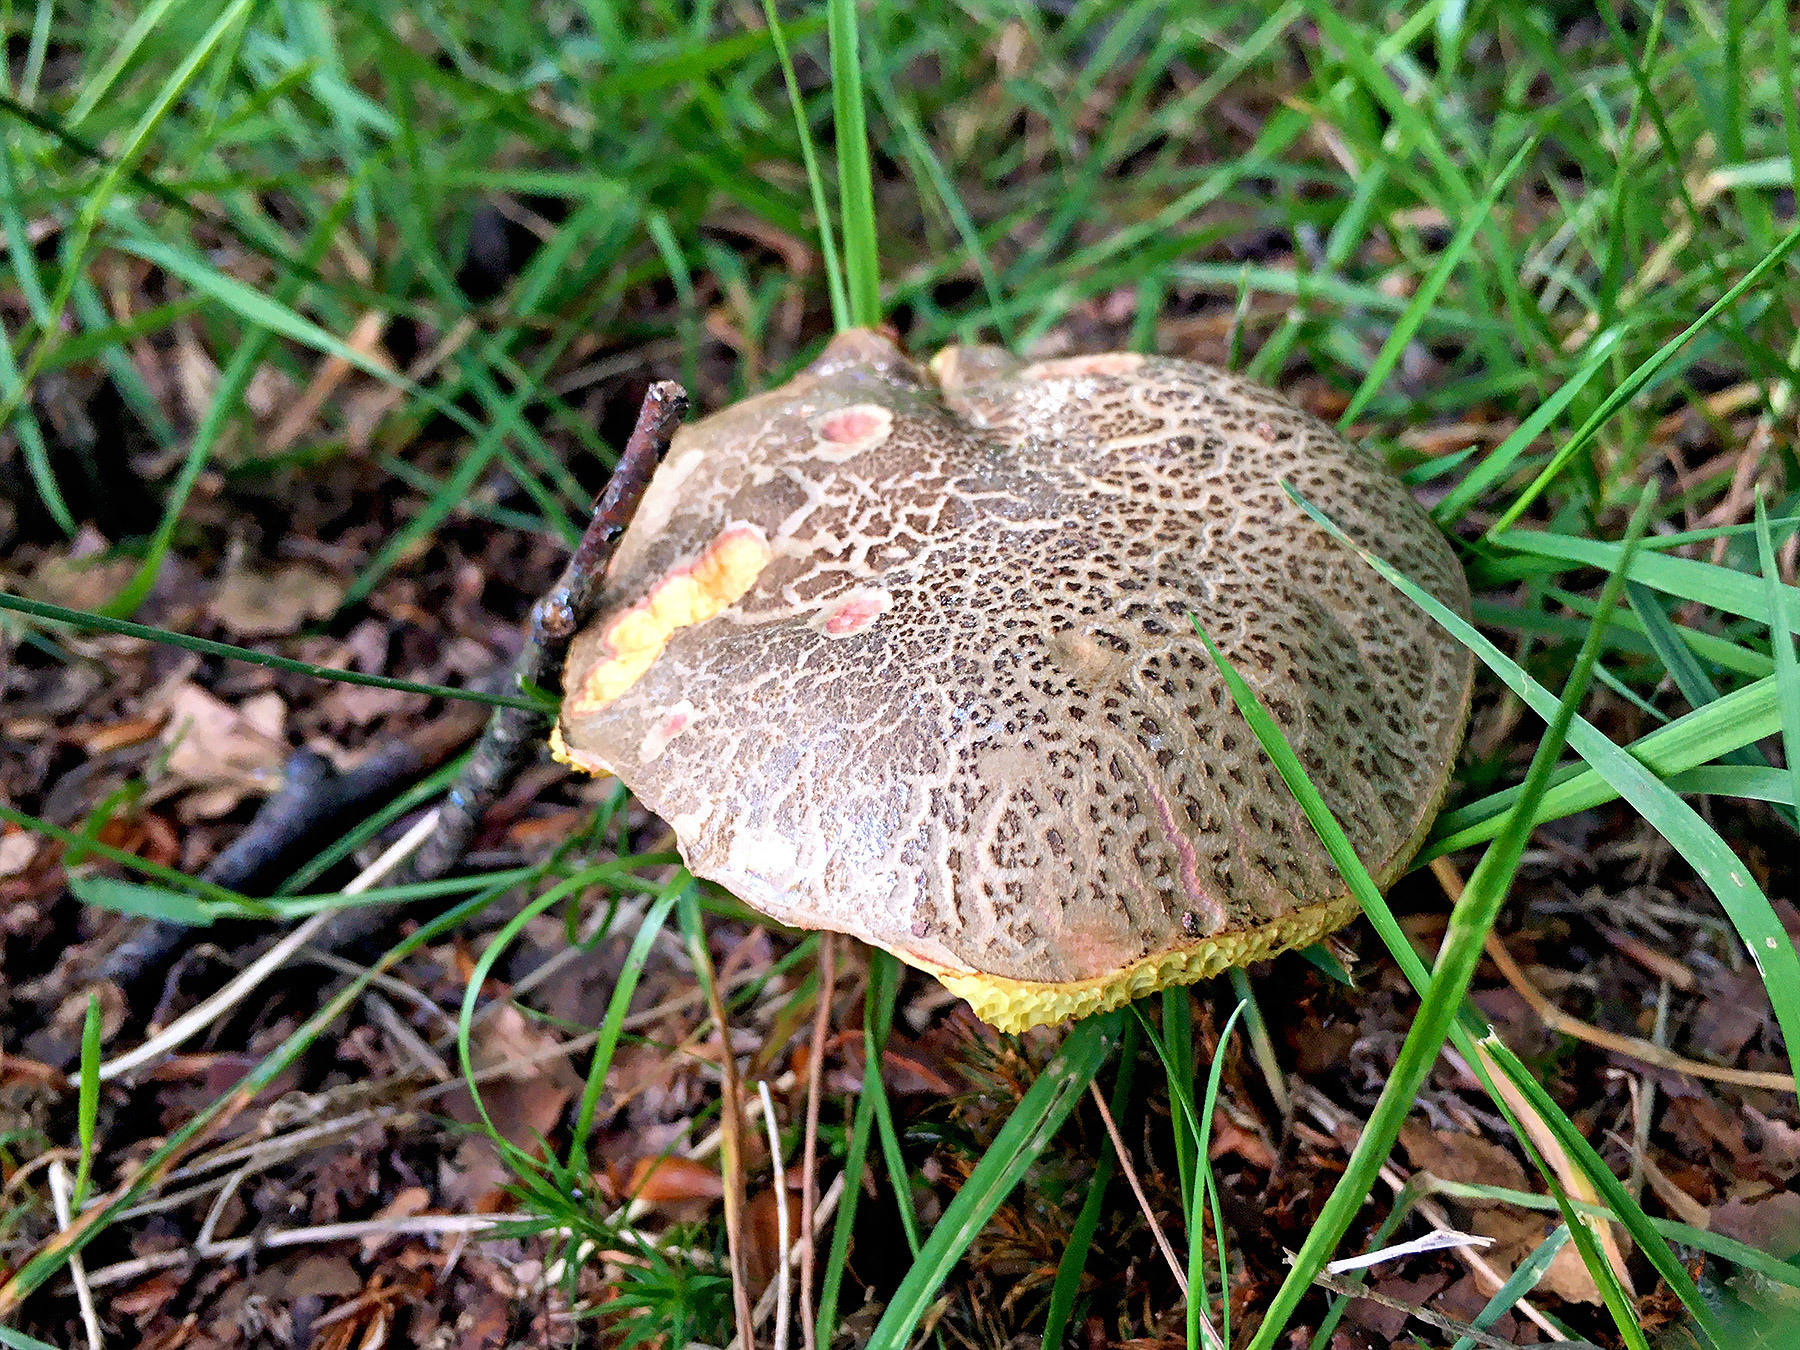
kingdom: Fungi
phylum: Basidiomycota
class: Agaricomycetes
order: Boletales
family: Boletaceae
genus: Xerocomellus
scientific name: Xerocomellus chrysenteron
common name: Red-cracking bolete
